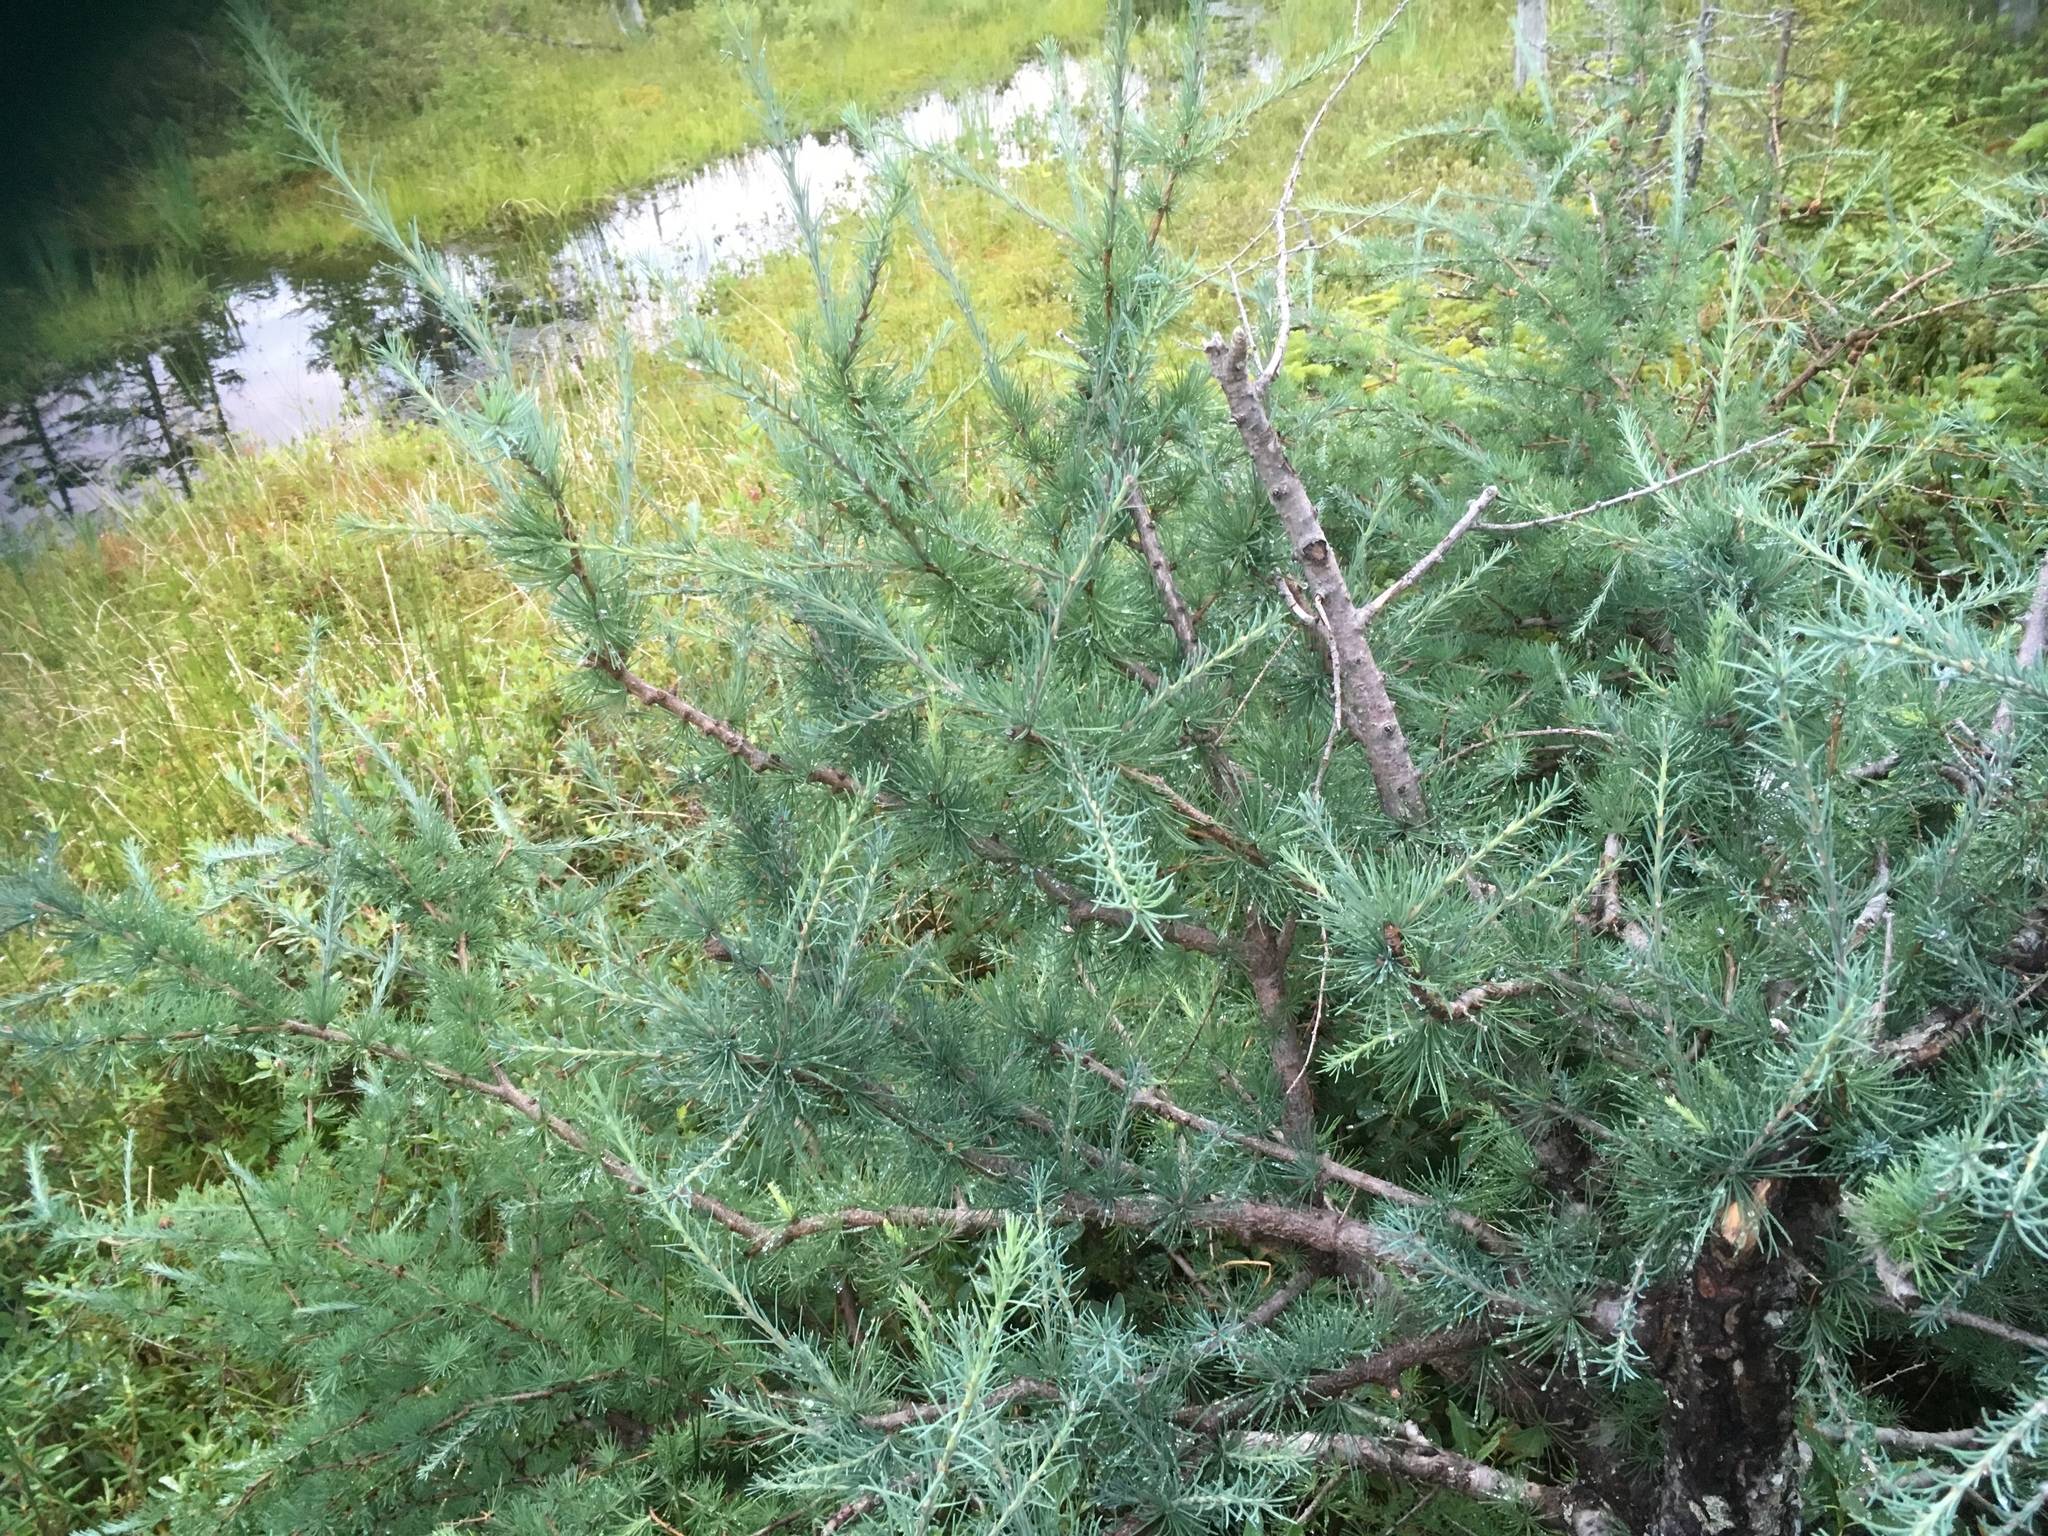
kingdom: Plantae
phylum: Tracheophyta
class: Pinopsida
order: Pinales
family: Pinaceae
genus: Larix
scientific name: Larix laricina
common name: American larch
